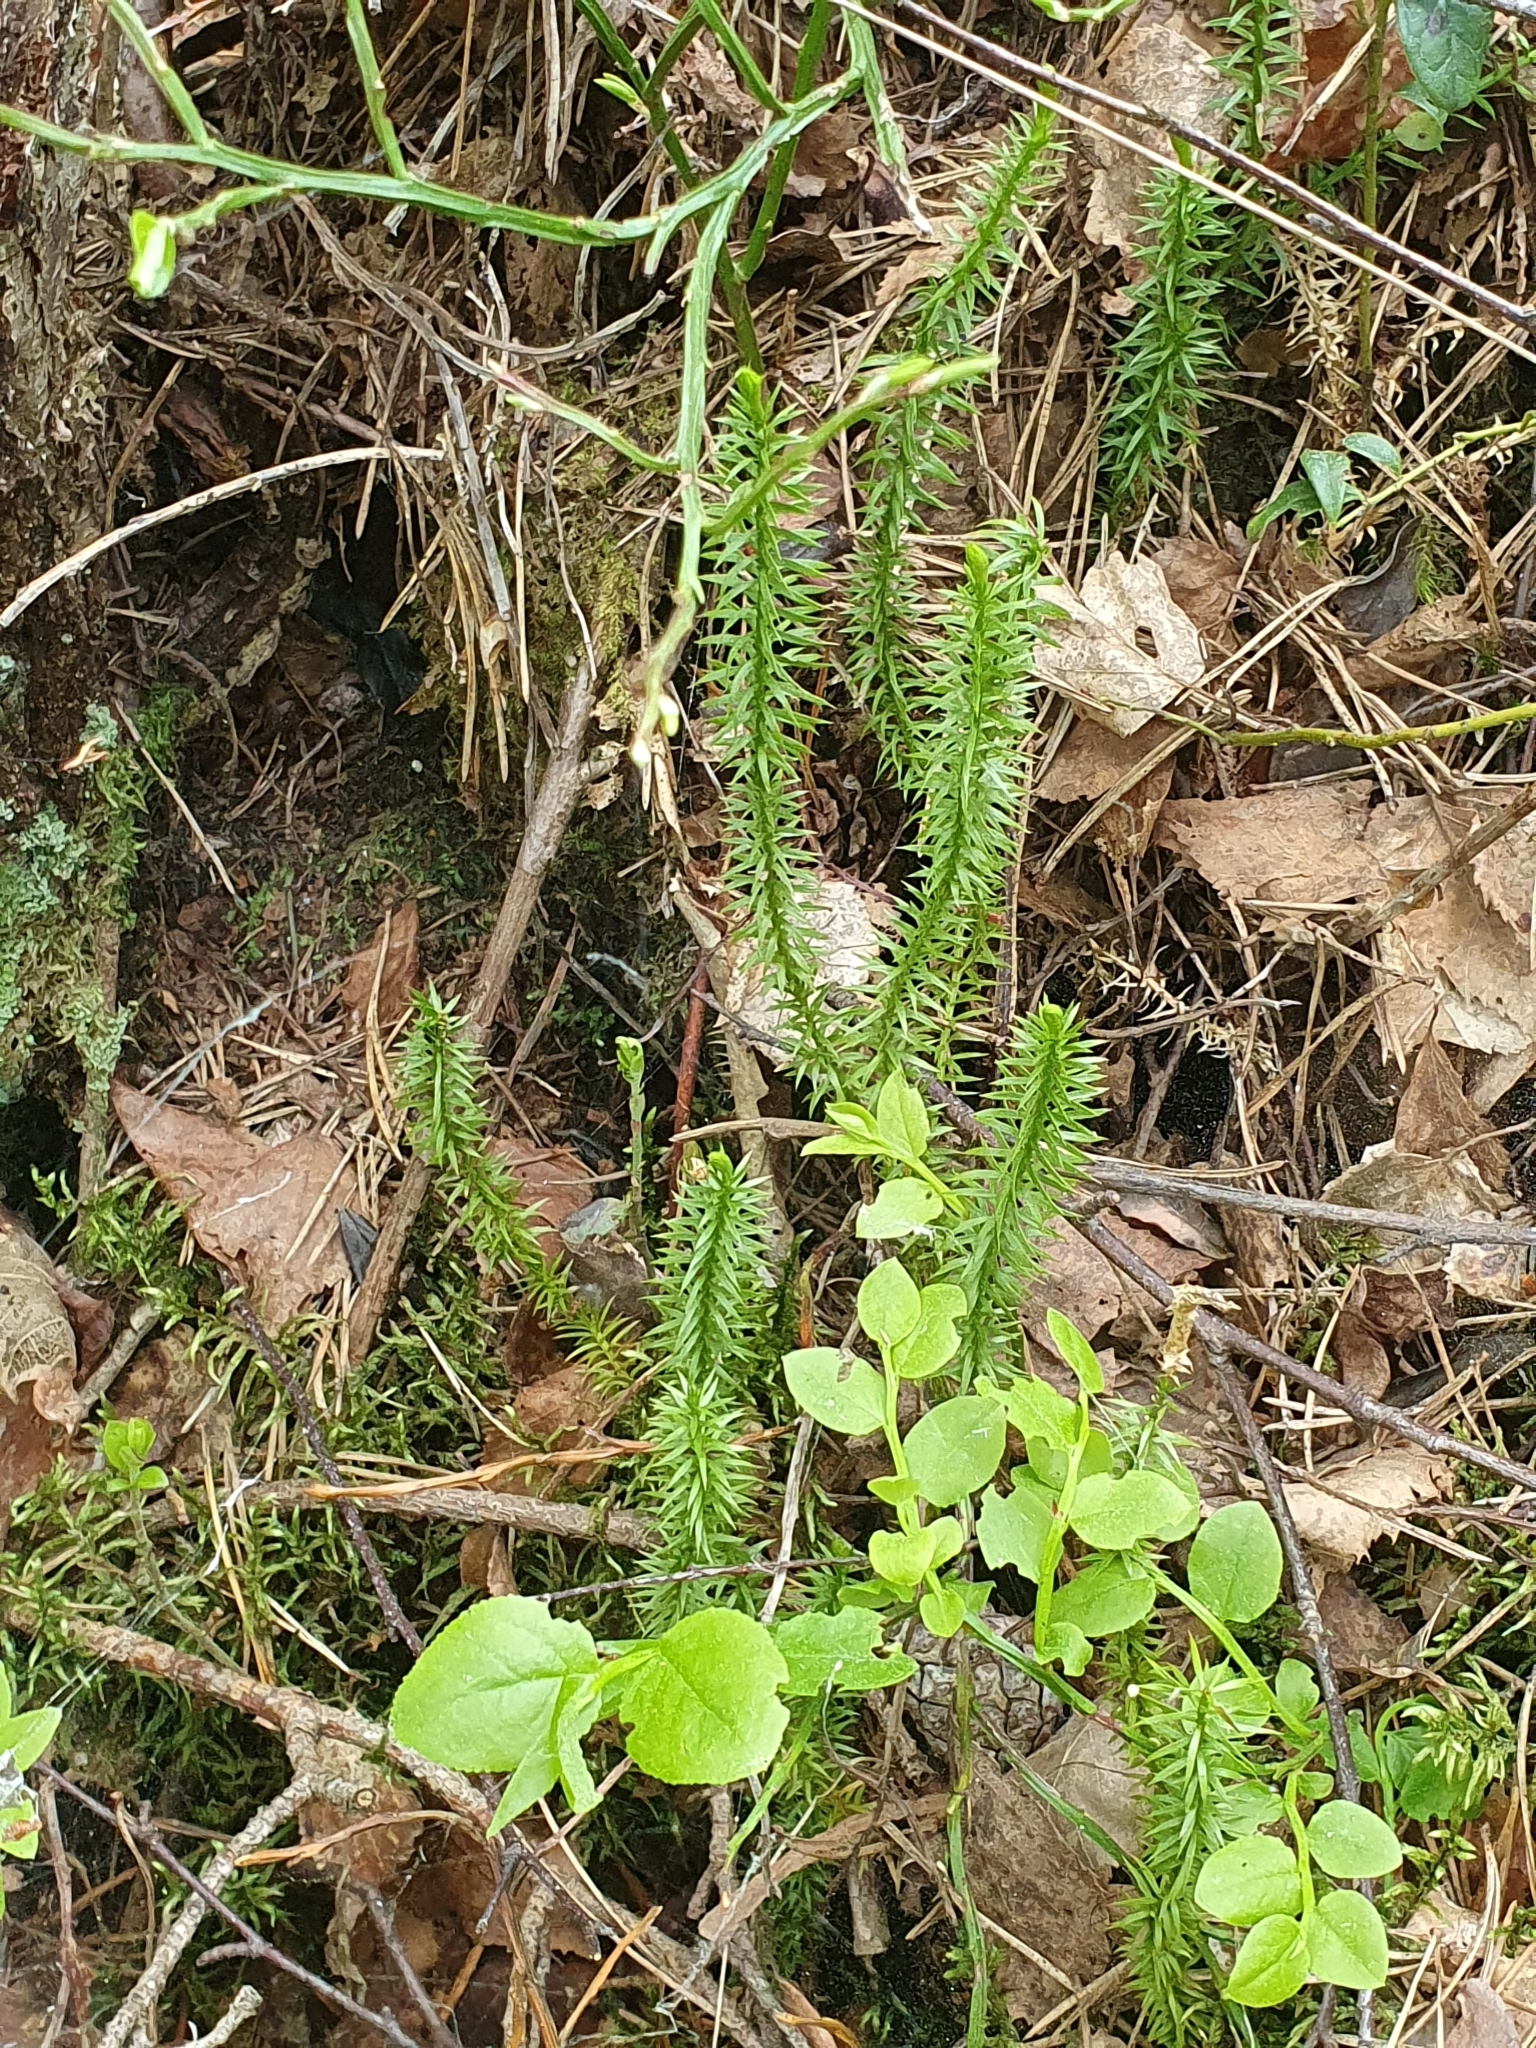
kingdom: Plantae
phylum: Tracheophyta
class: Lycopodiopsida
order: Lycopodiales
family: Lycopodiaceae
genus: Spinulum
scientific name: Spinulum annotinum
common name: Interrupted club-moss
